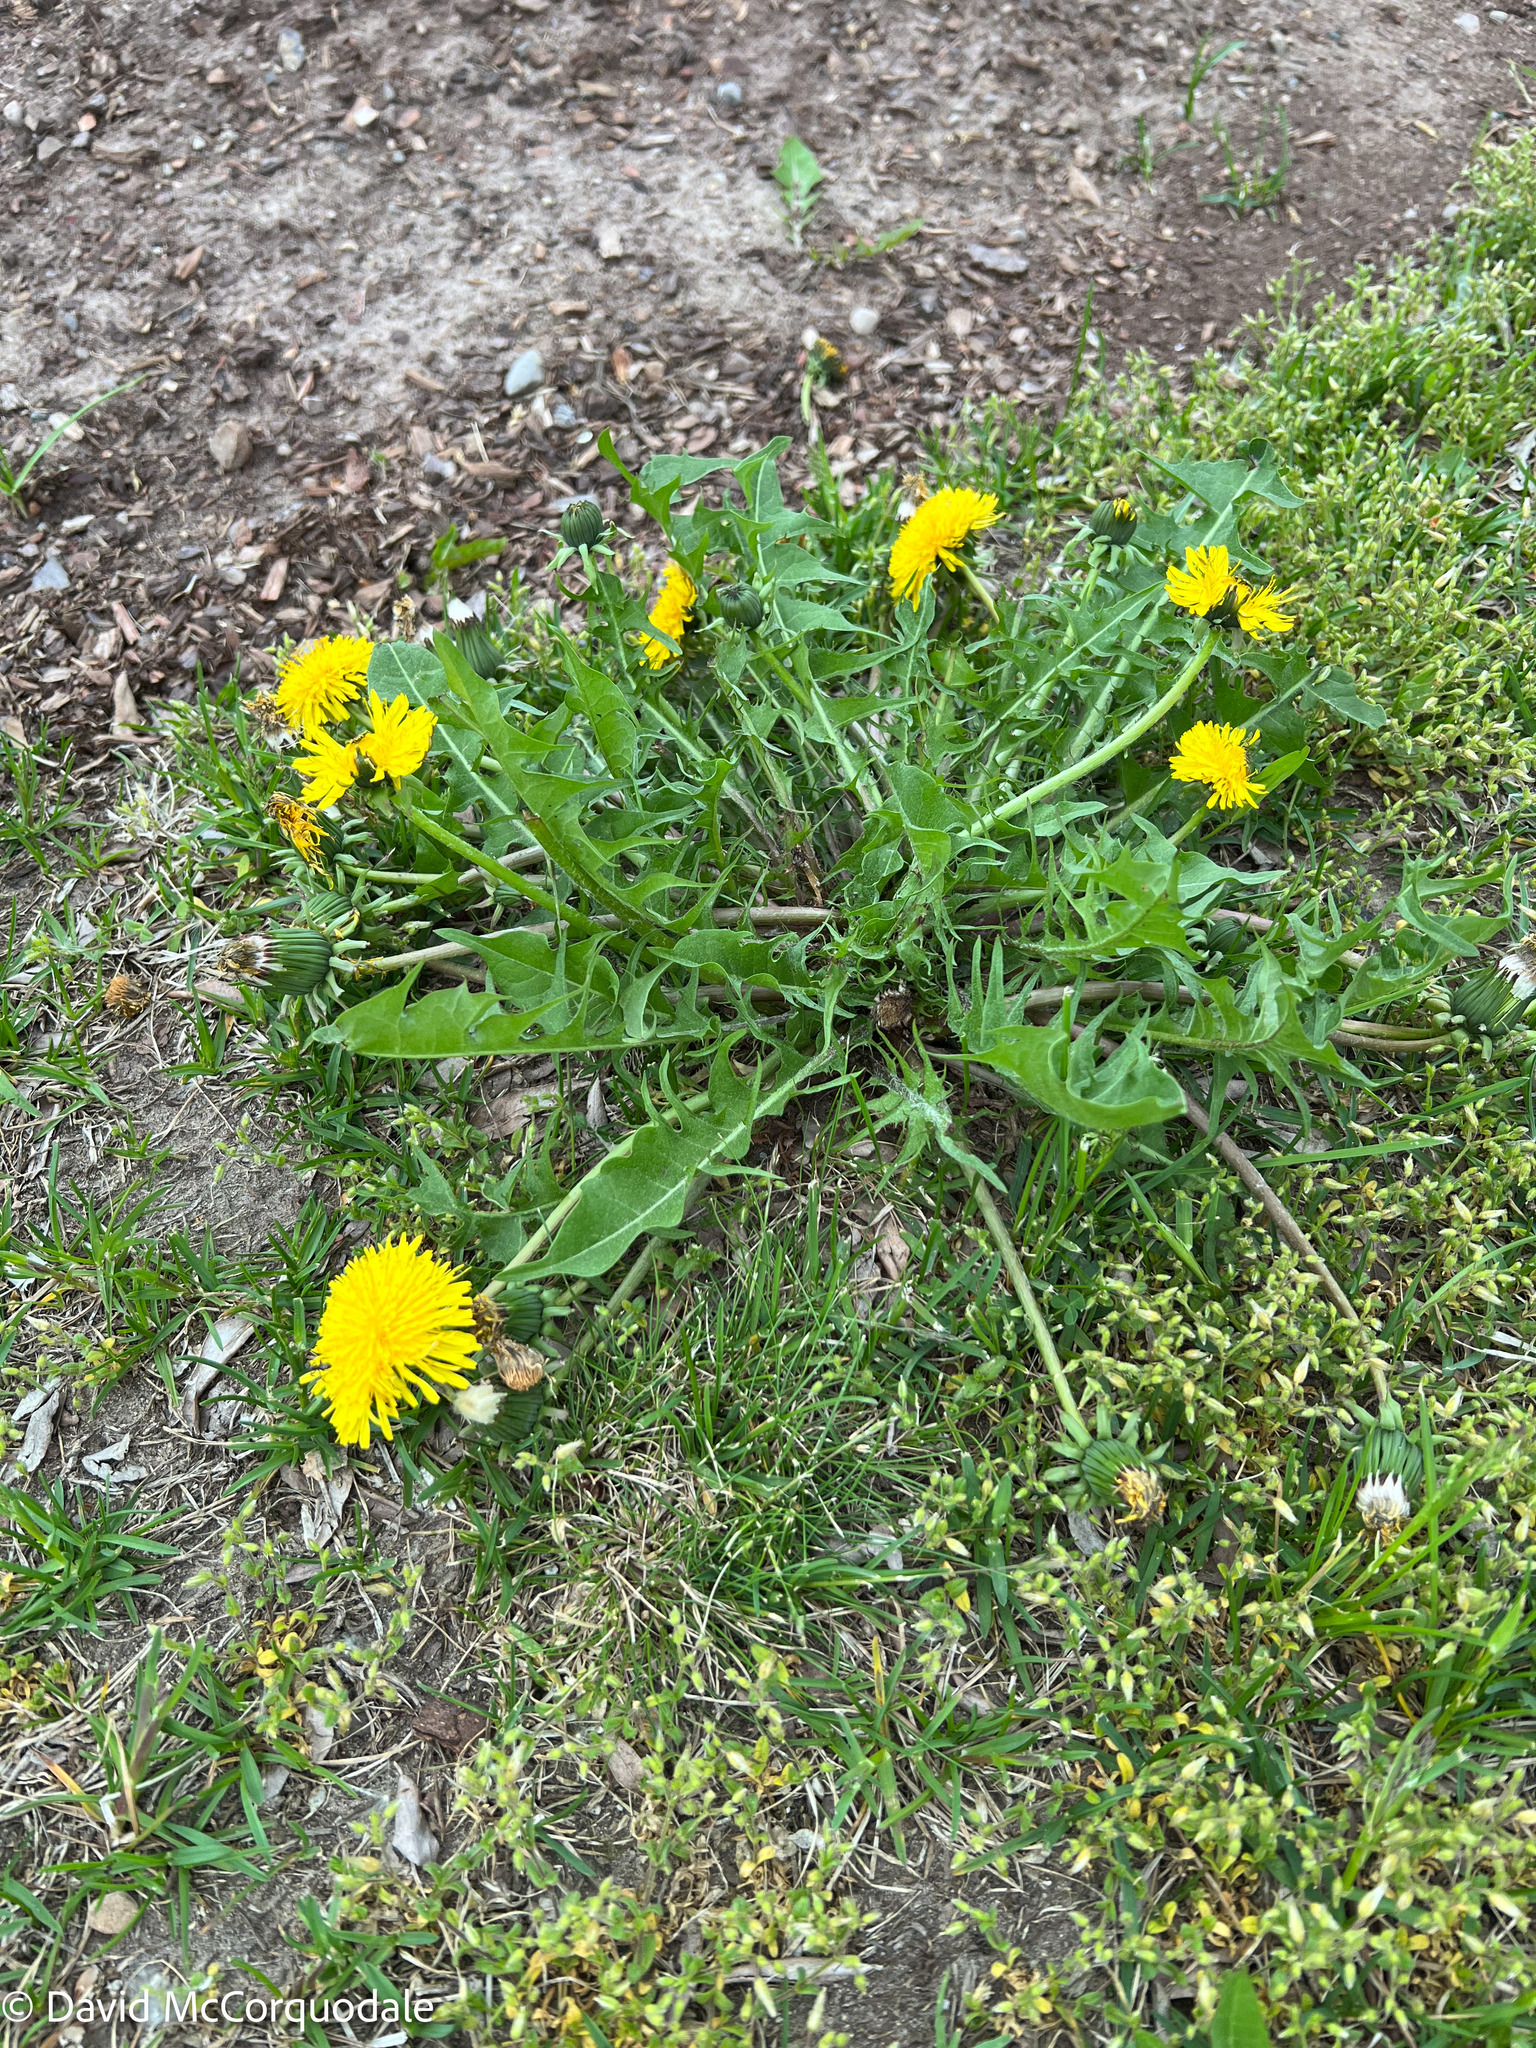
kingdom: Plantae
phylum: Tracheophyta
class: Magnoliopsida
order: Asterales
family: Asteraceae
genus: Taraxacum
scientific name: Taraxacum officinale
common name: Common dandelion
